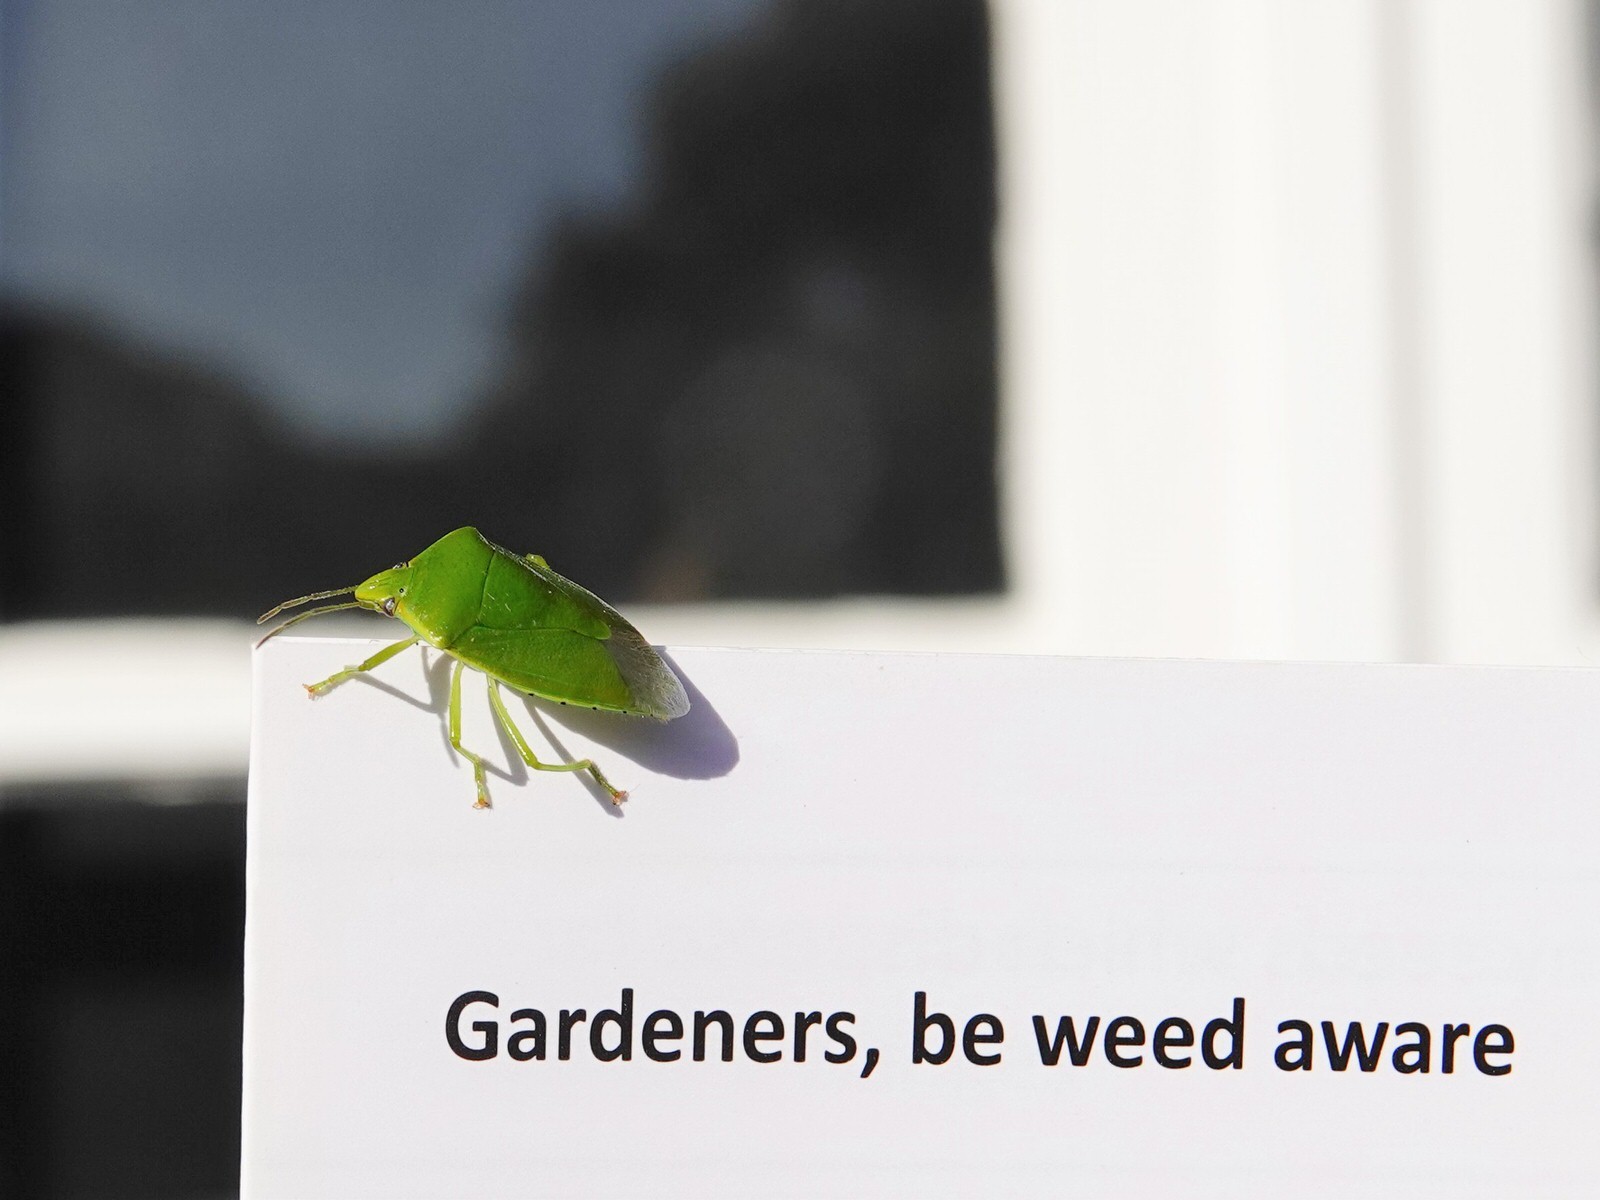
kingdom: Animalia
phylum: Arthropoda
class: Insecta
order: Hemiptera
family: Pentatomidae
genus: Glaucias
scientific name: Glaucias amyota
